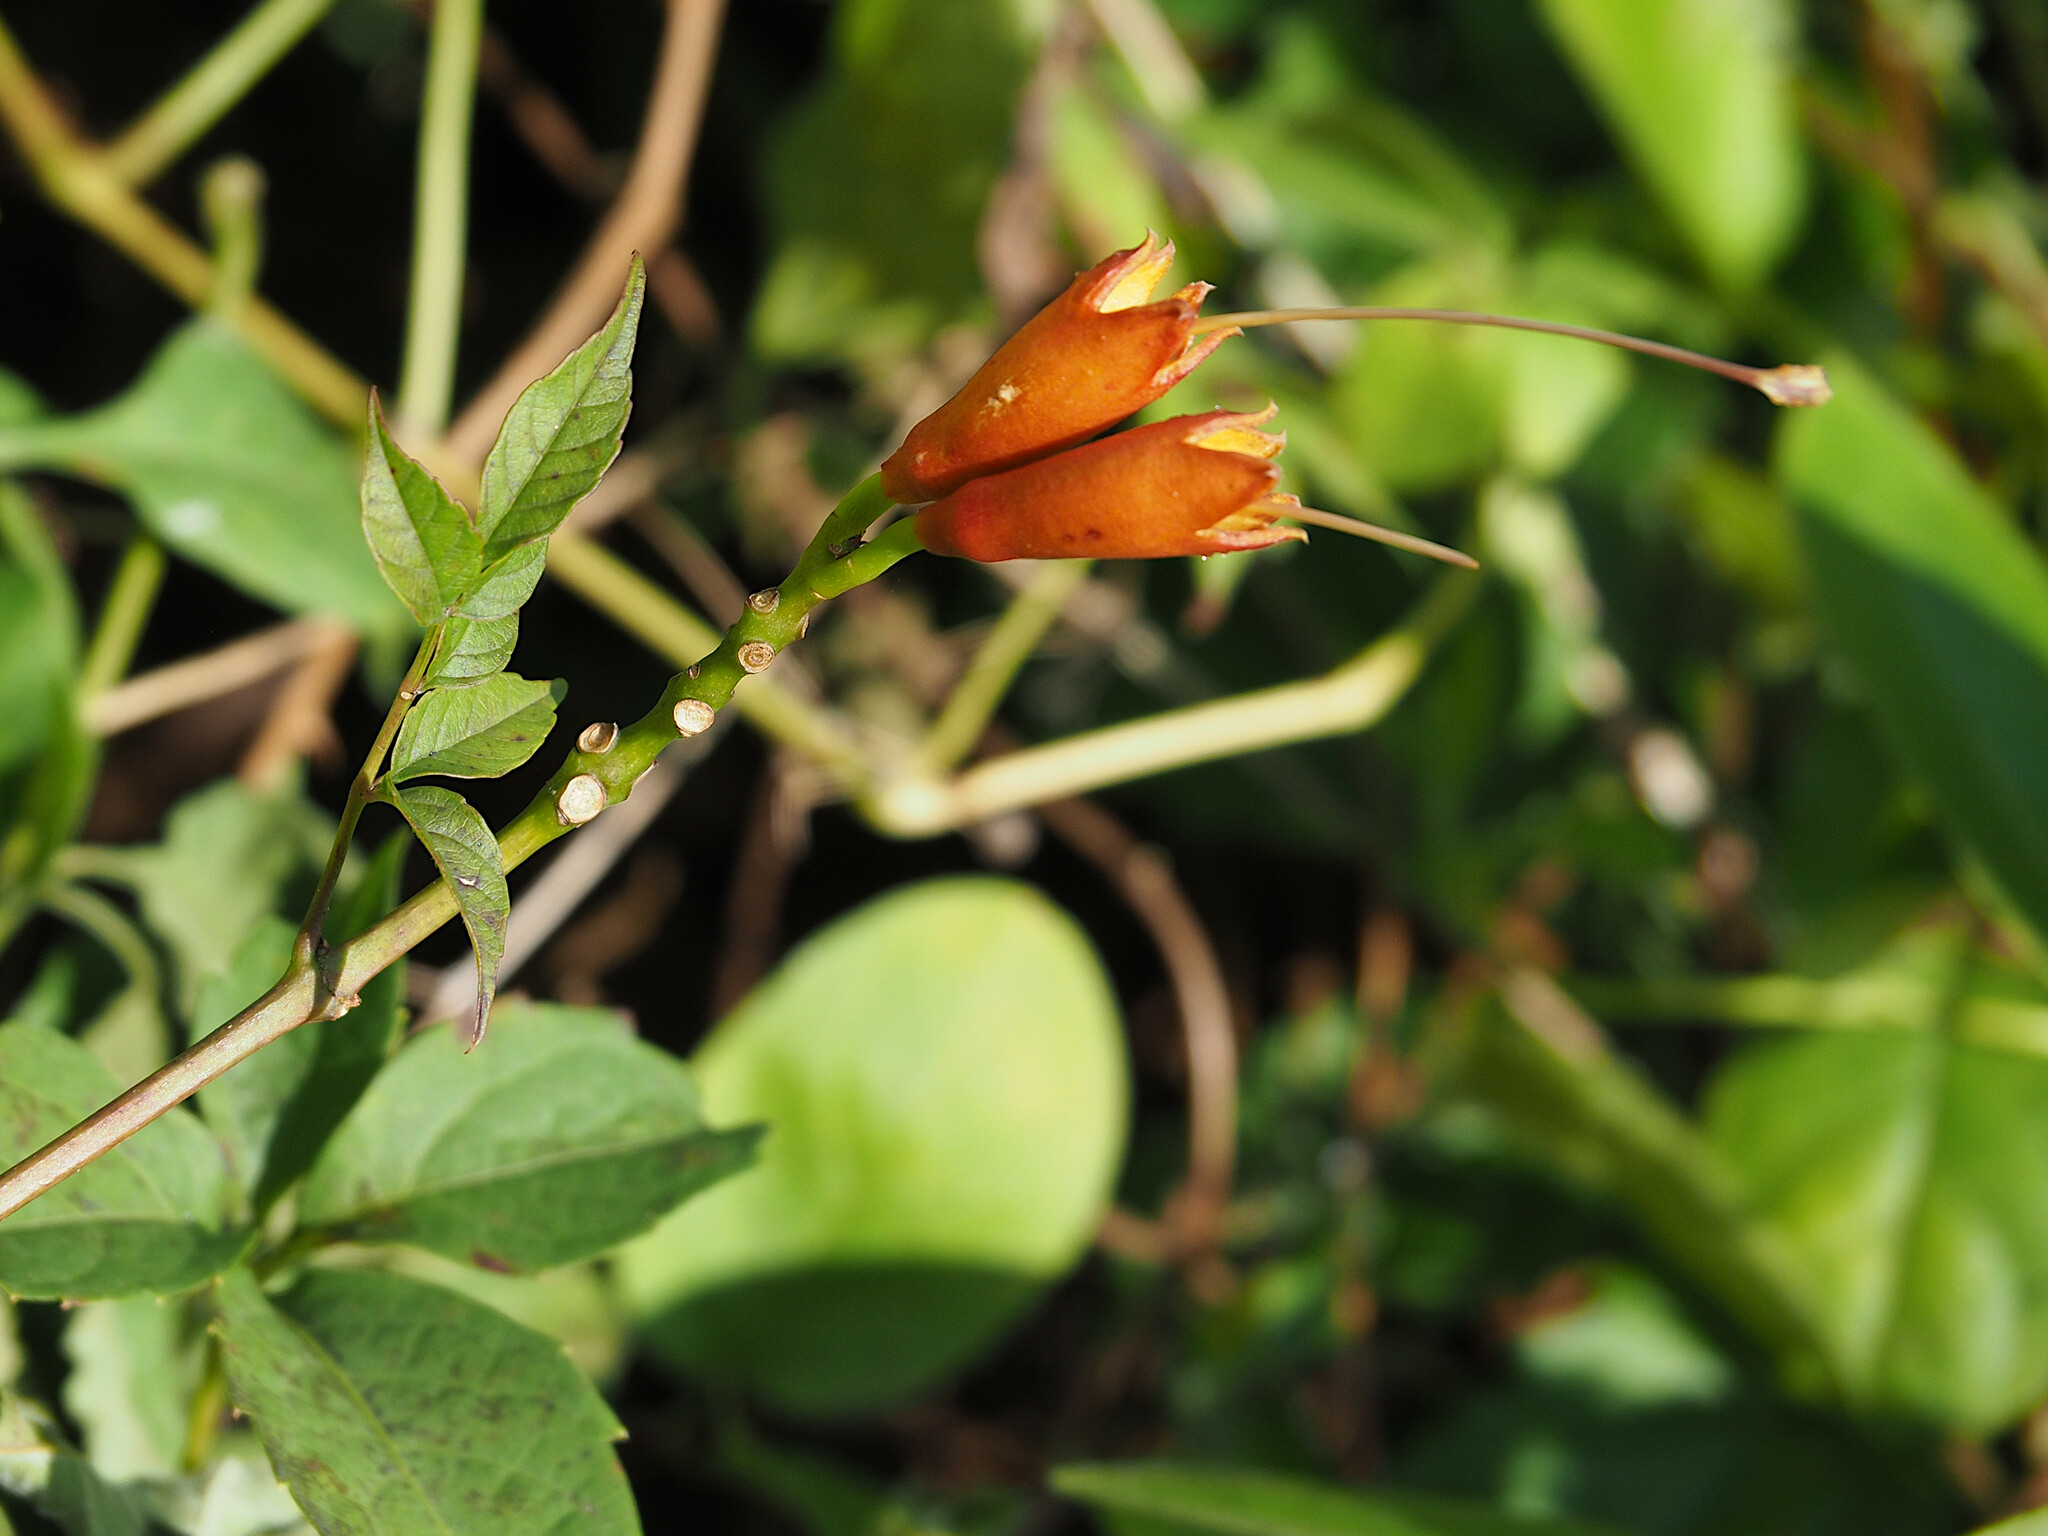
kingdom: Plantae
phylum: Tracheophyta
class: Magnoliopsida
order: Lamiales
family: Bignoniaceae
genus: Campsis
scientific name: Campsis radicans
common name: Trumpet-creeper
